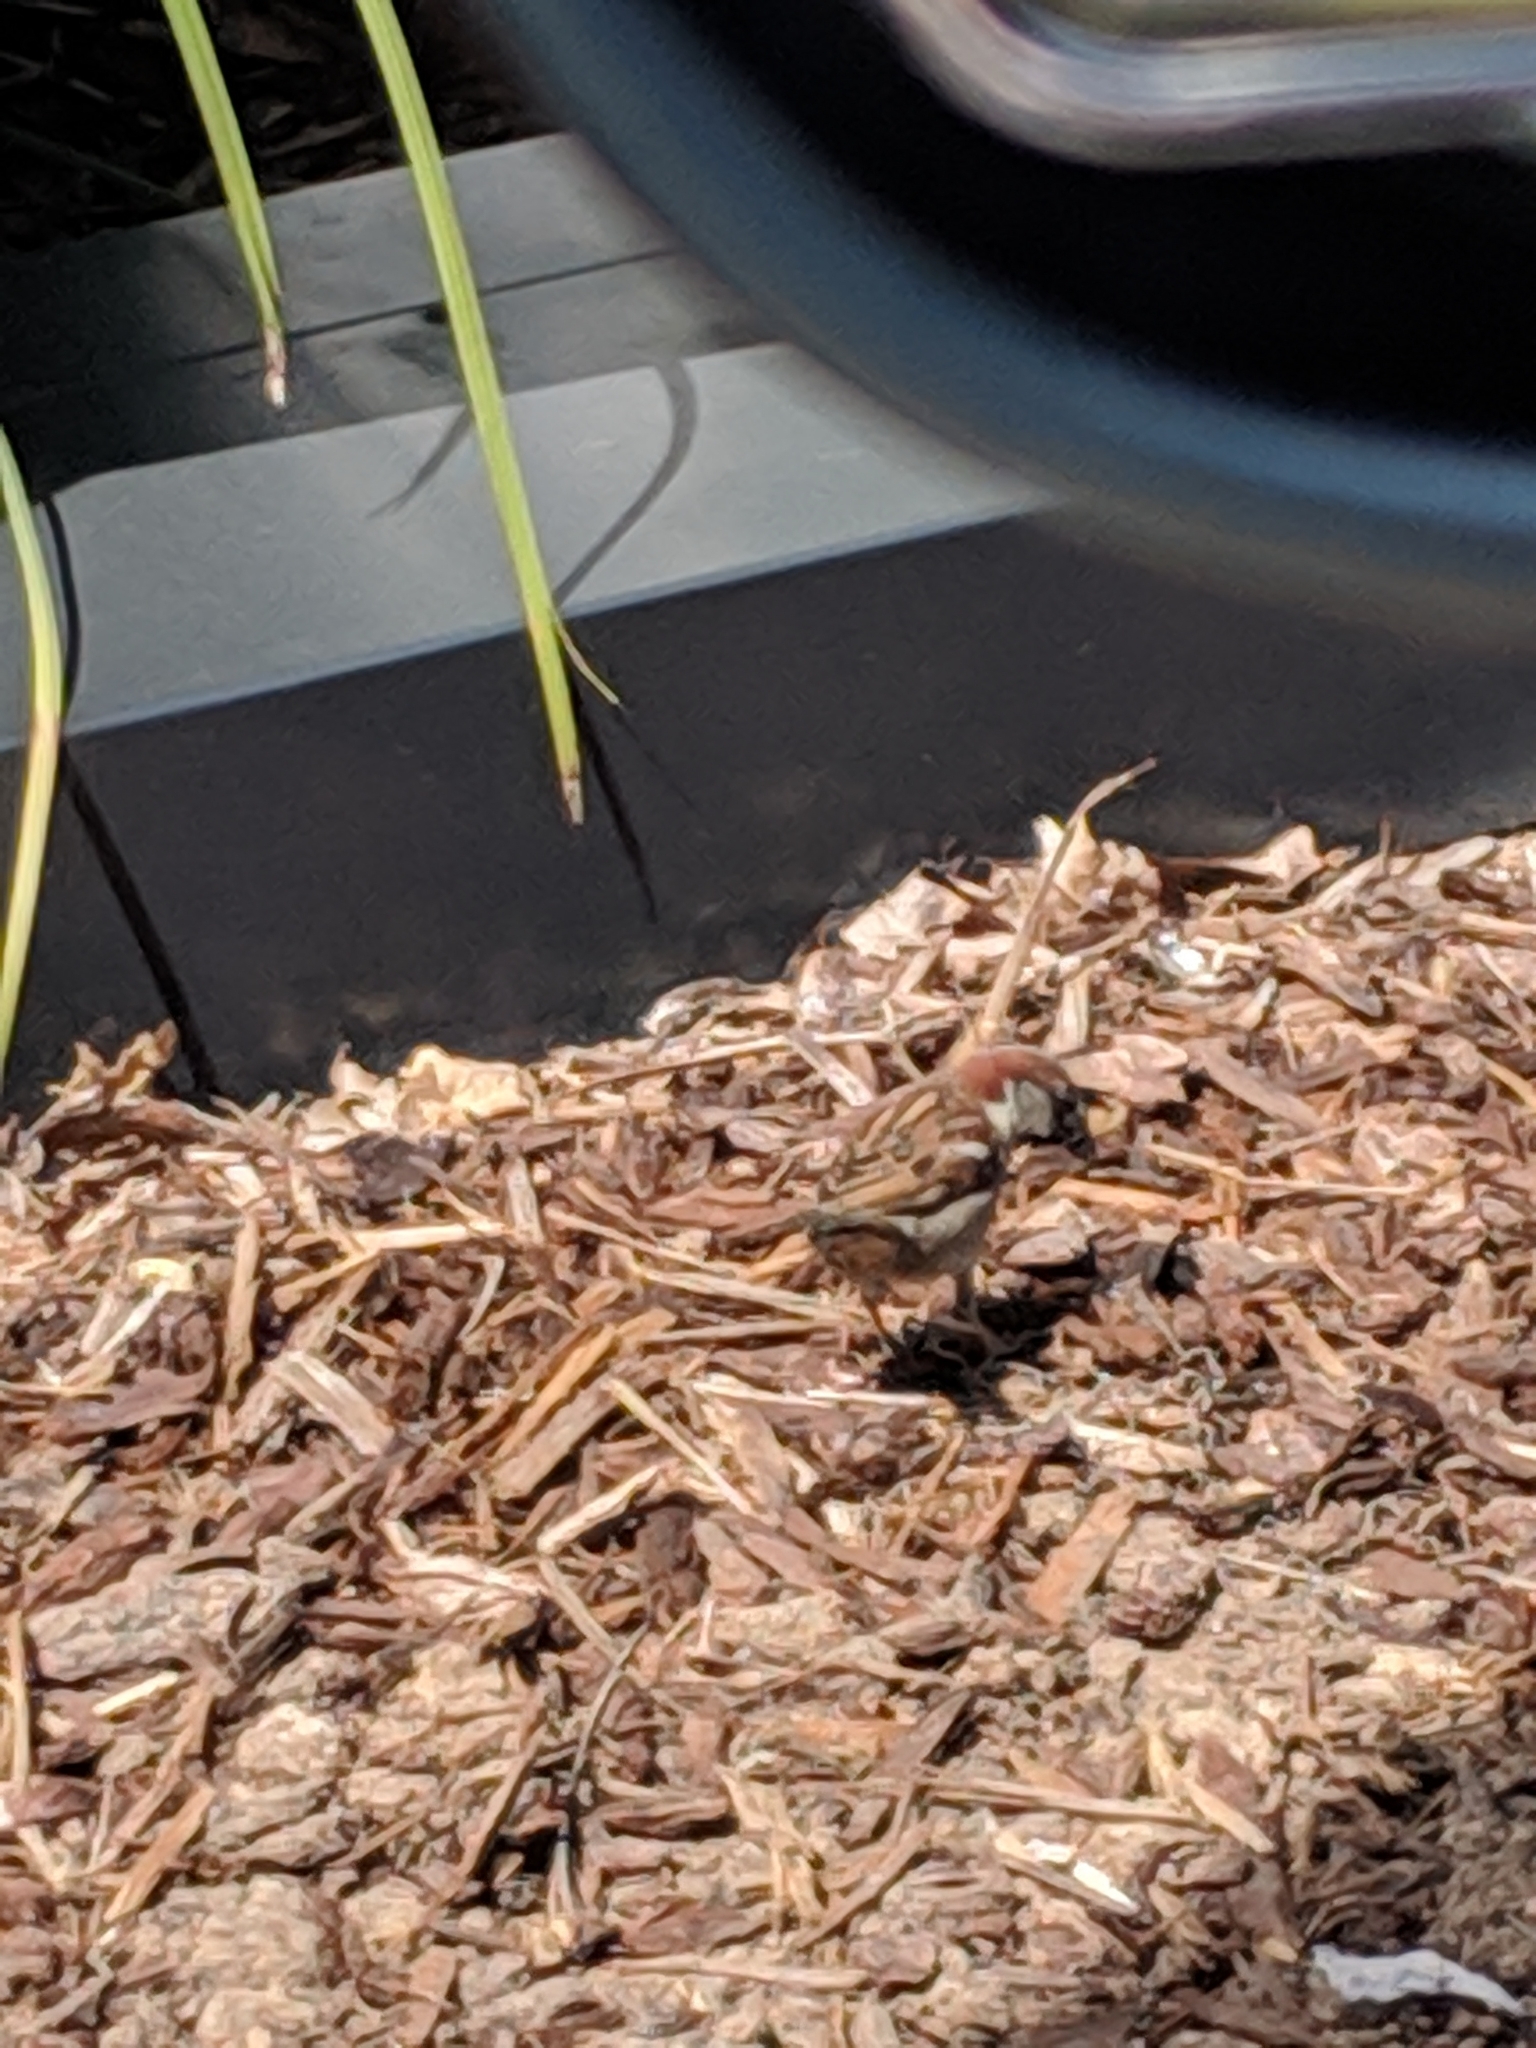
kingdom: Animalia
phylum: Chordata
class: Aves
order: Passeriformes
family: Passeridae
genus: Passer
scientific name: Passer domesticus
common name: House sparrow
